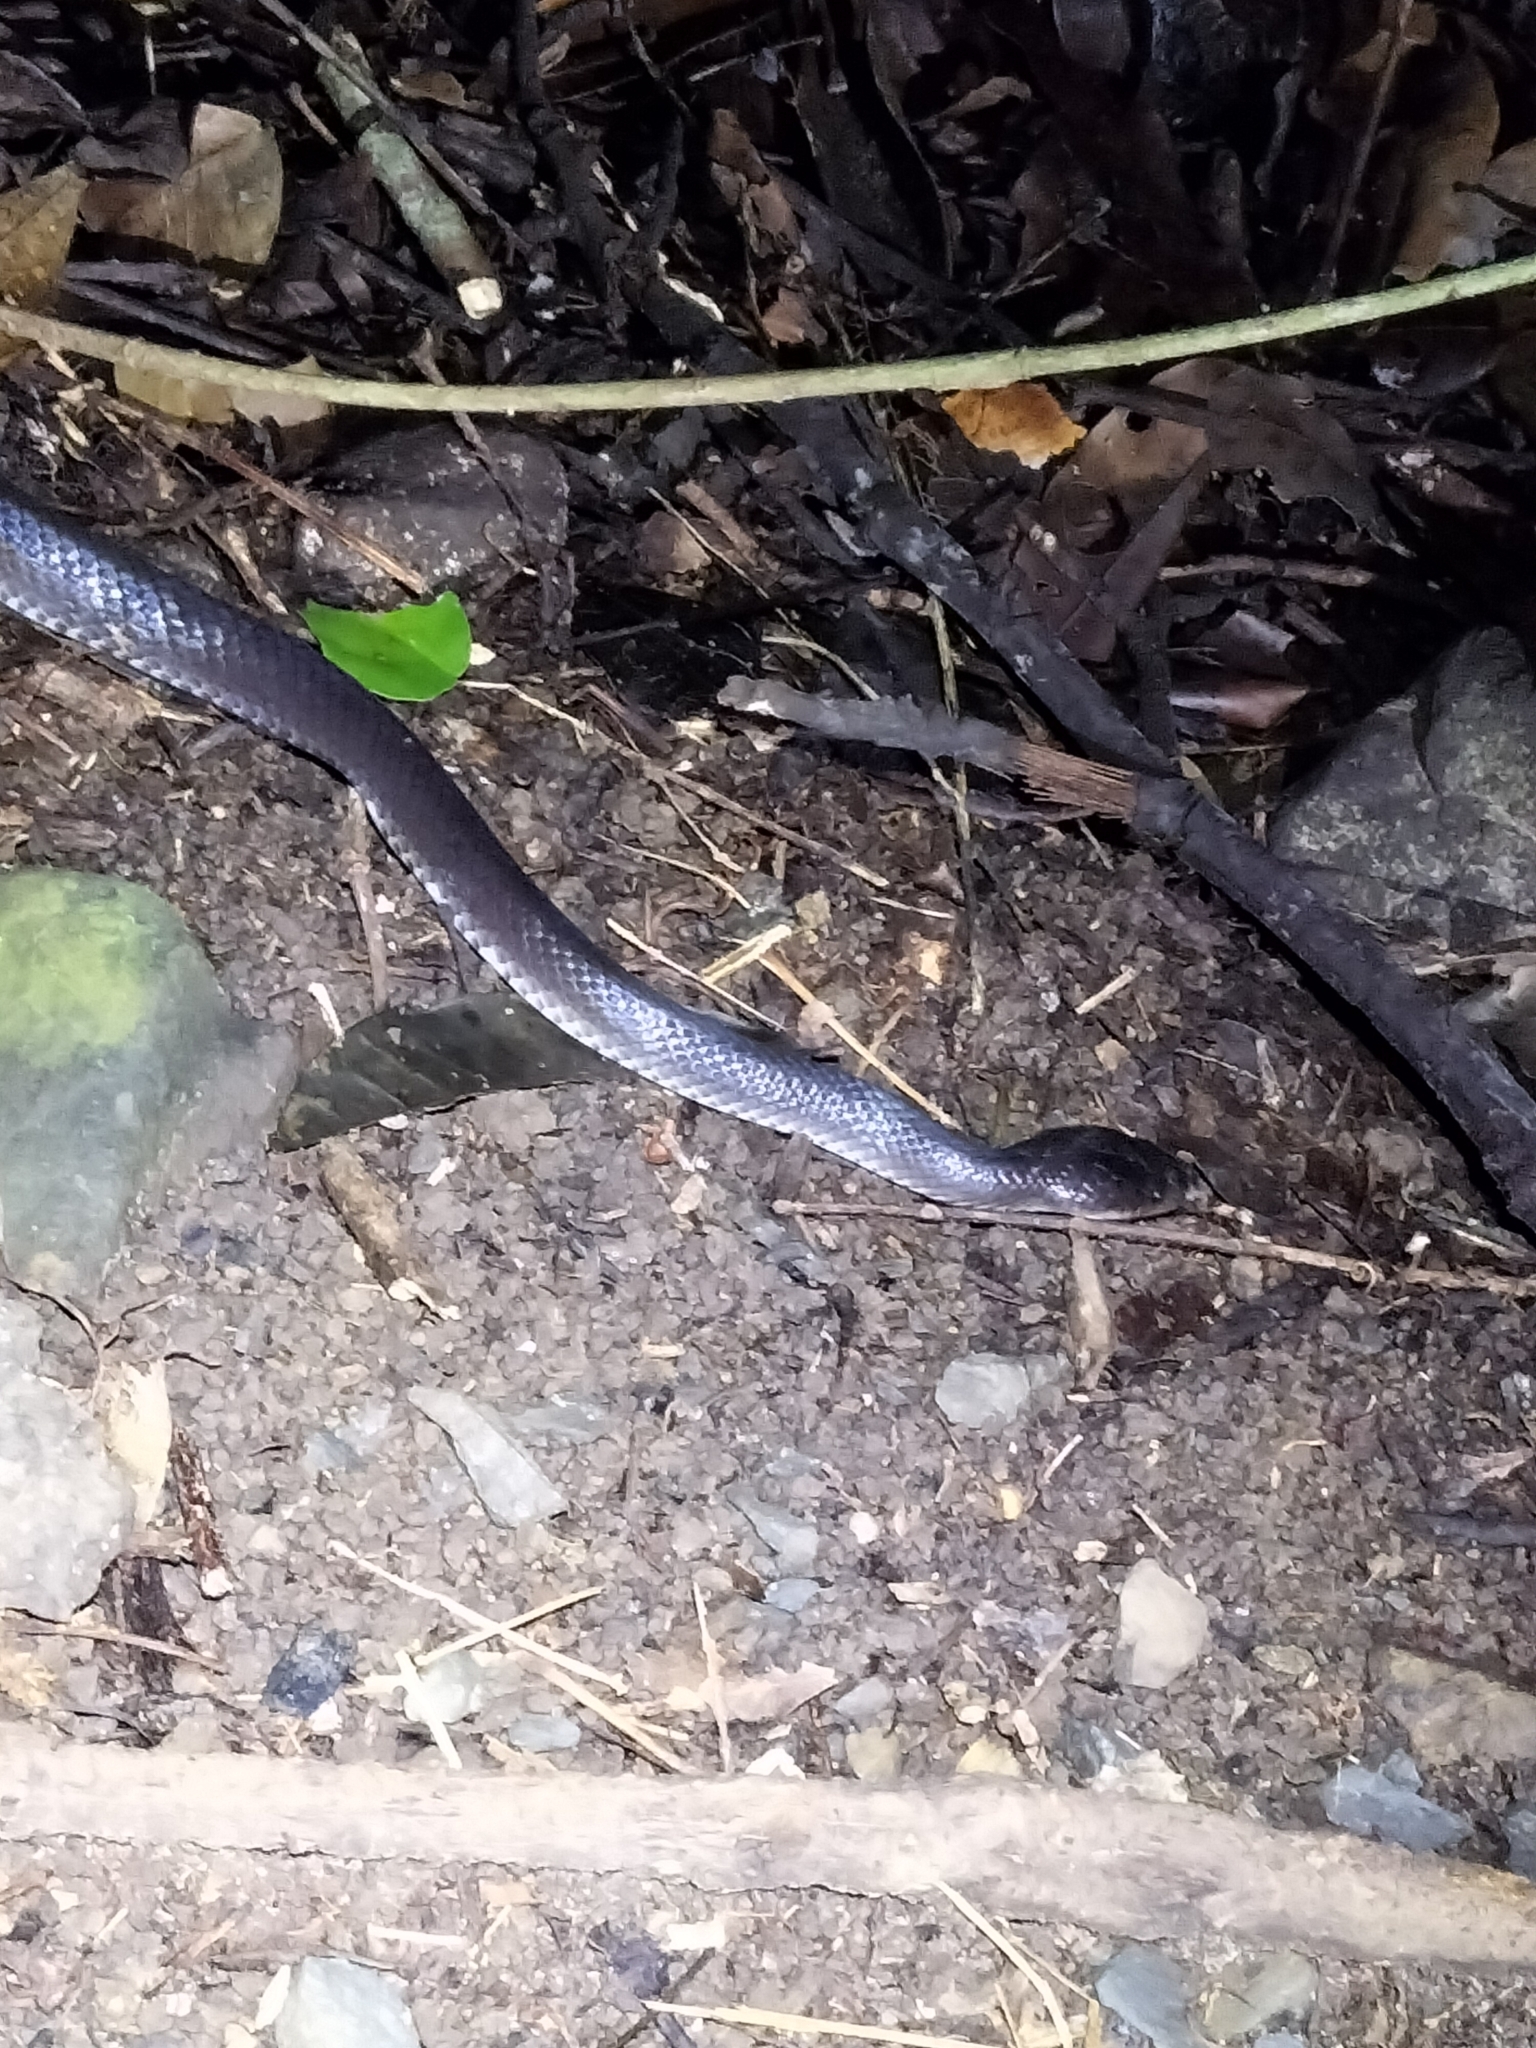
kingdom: Animalia
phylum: Chordata
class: Squamata
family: Colubridae
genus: Stegonotus
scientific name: Stegonotus australis
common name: Australian groundsnake
